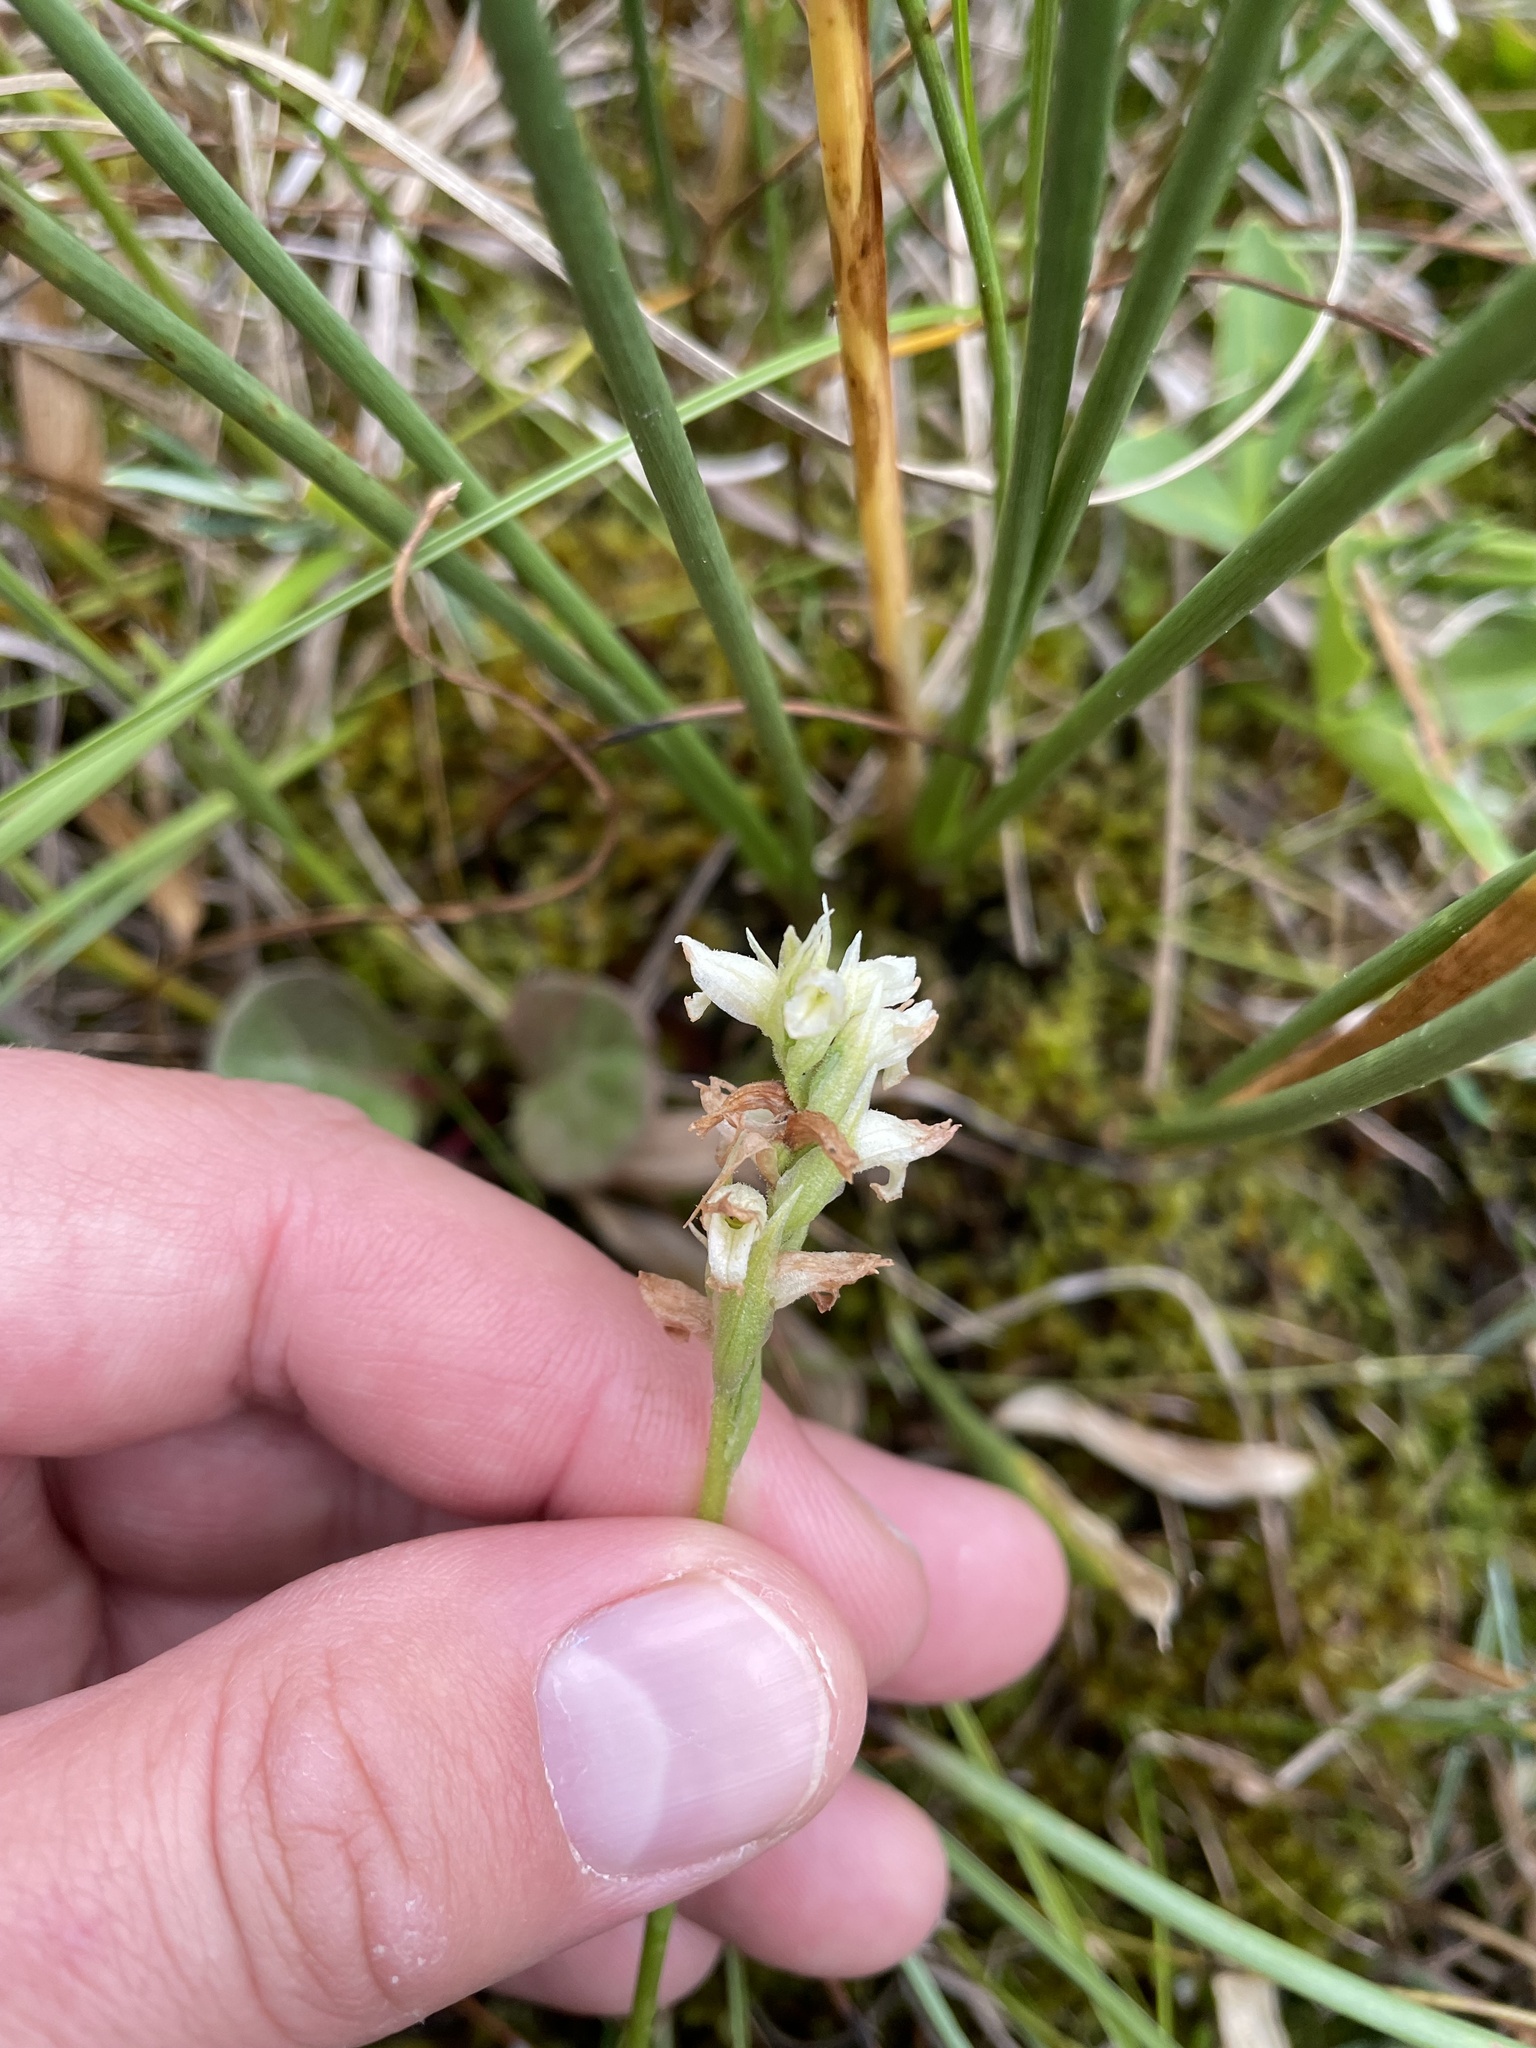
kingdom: Plantae
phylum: Tracheophyta
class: Liliopsida
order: Asparagales
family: Orchidaceae
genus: Spiranthes
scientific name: Spiranthes romanzoffiana
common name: Irish lady's-tresses
